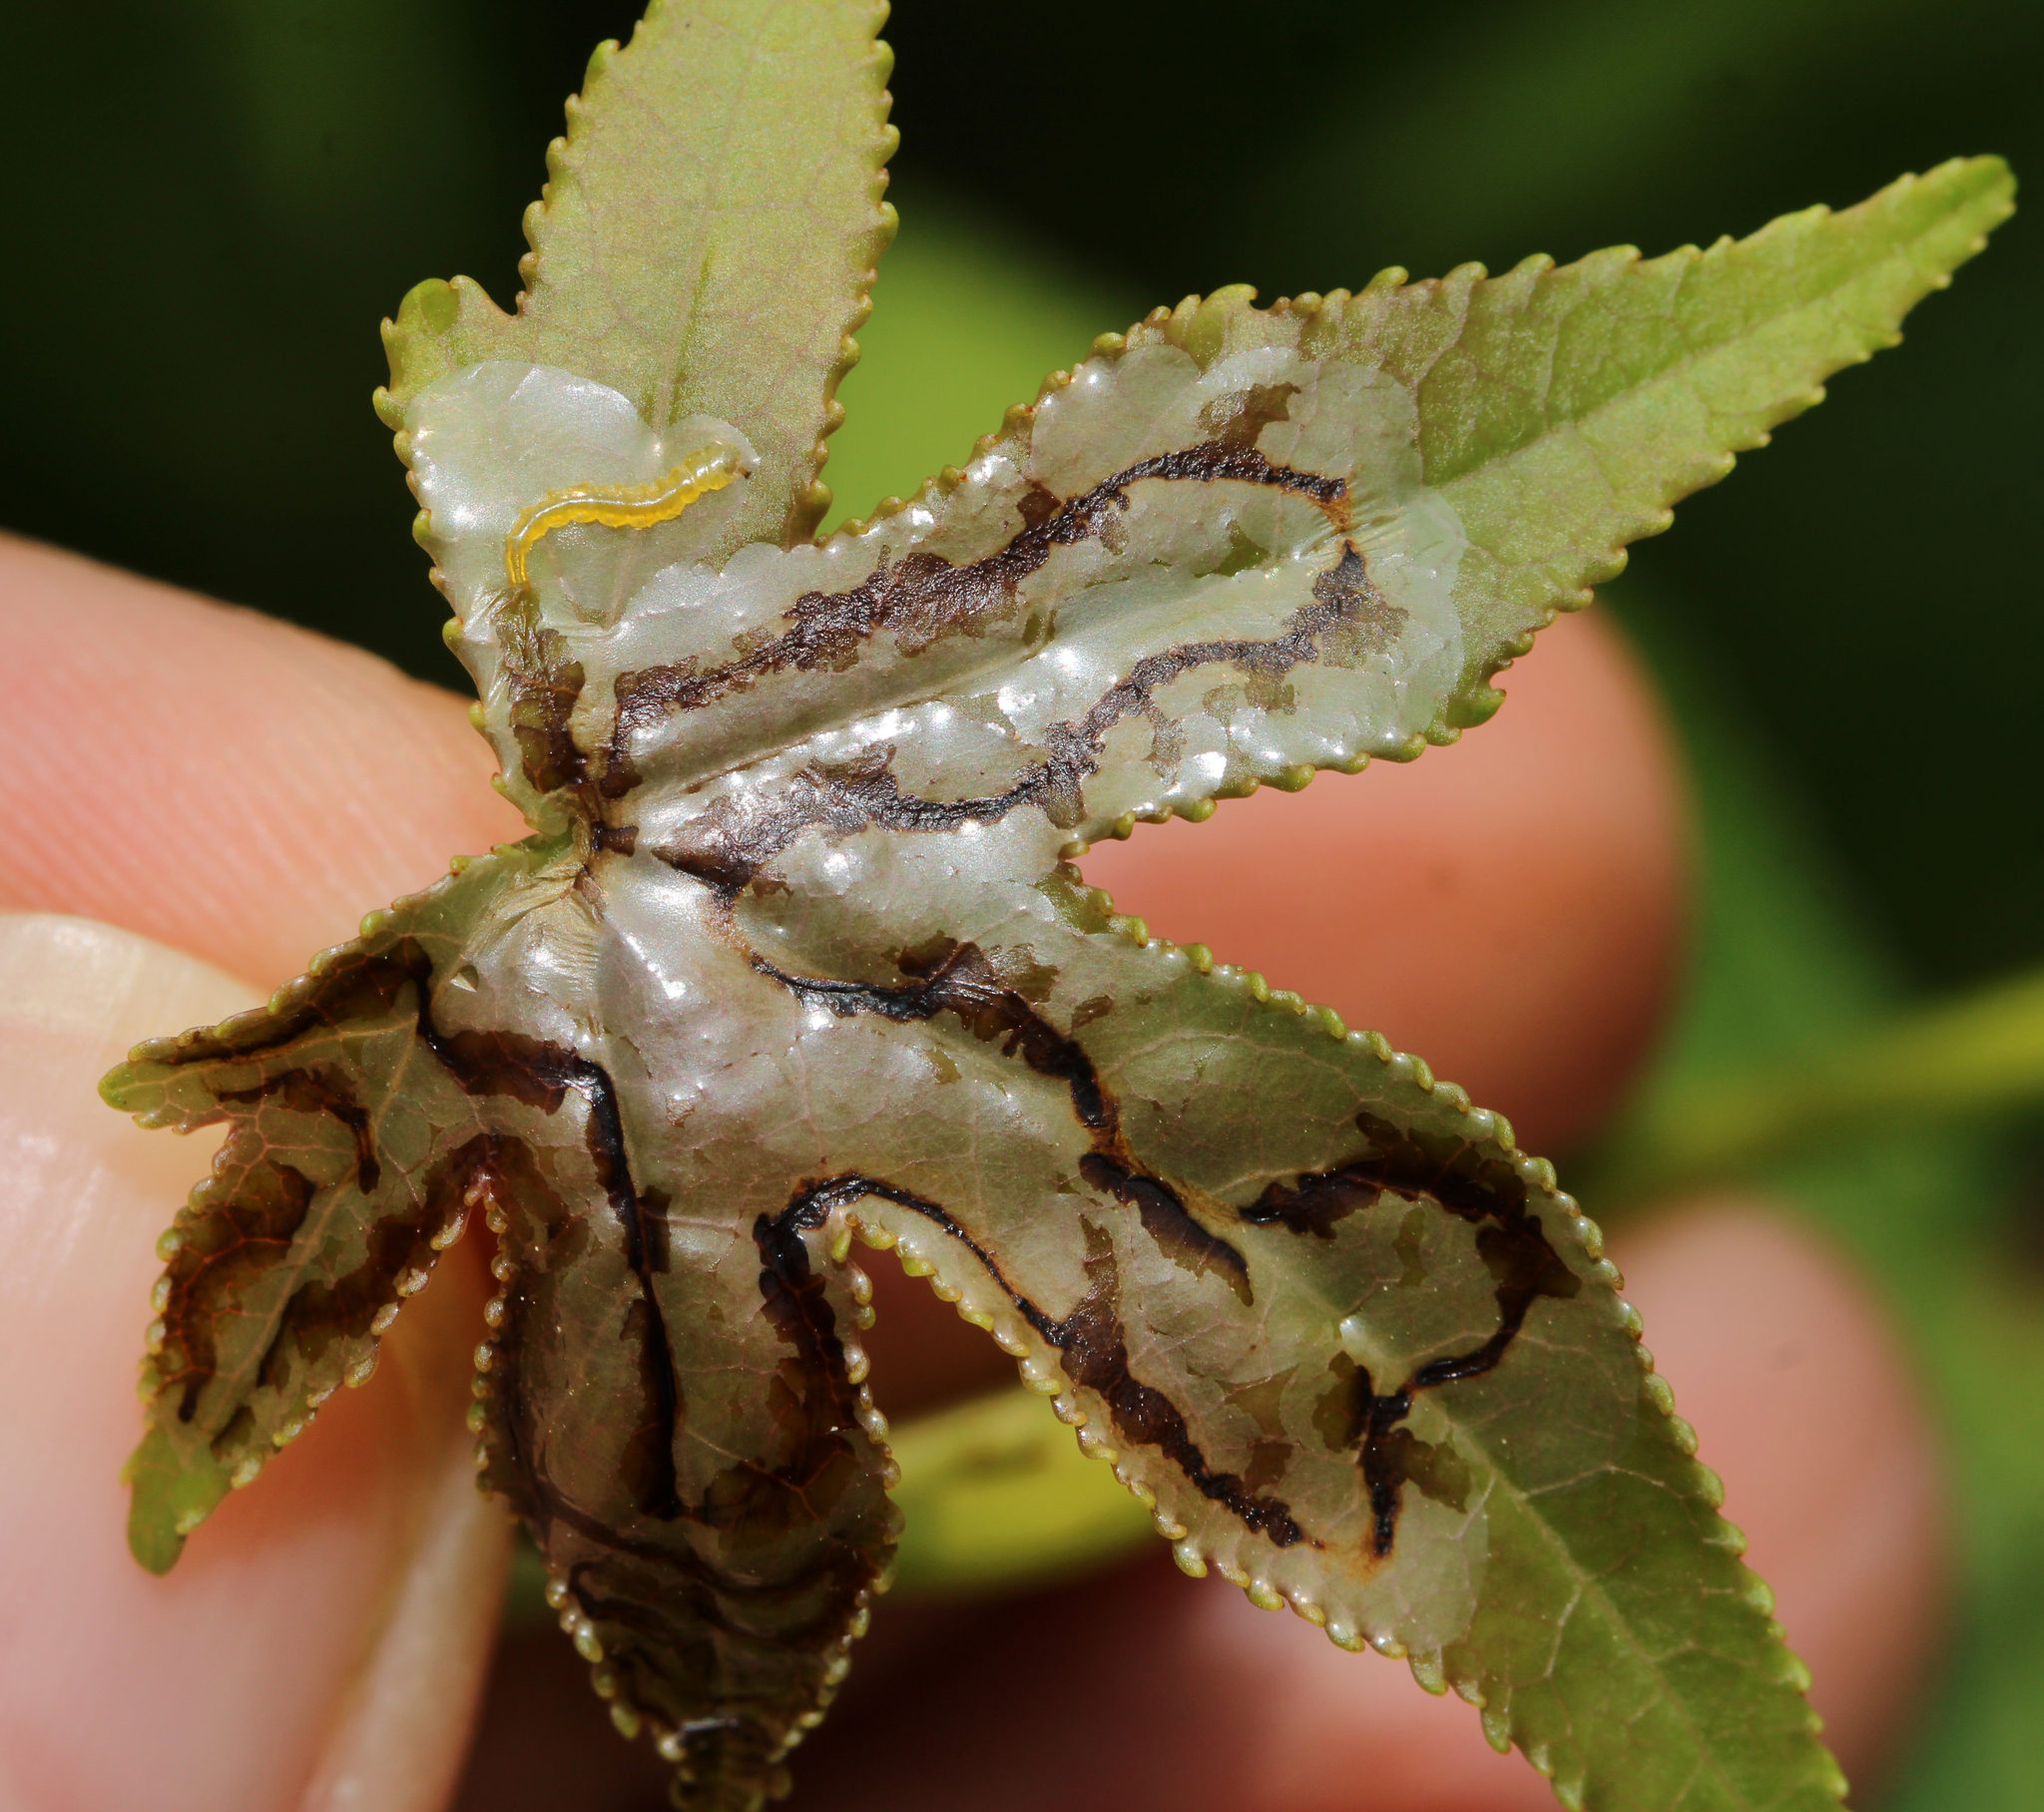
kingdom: Animalia
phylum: Arthropoda
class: Insecta
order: Lepidoptera
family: Gracillariidae
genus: Phyllocnistis
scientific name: Phyllocnistis liquidambarisella
